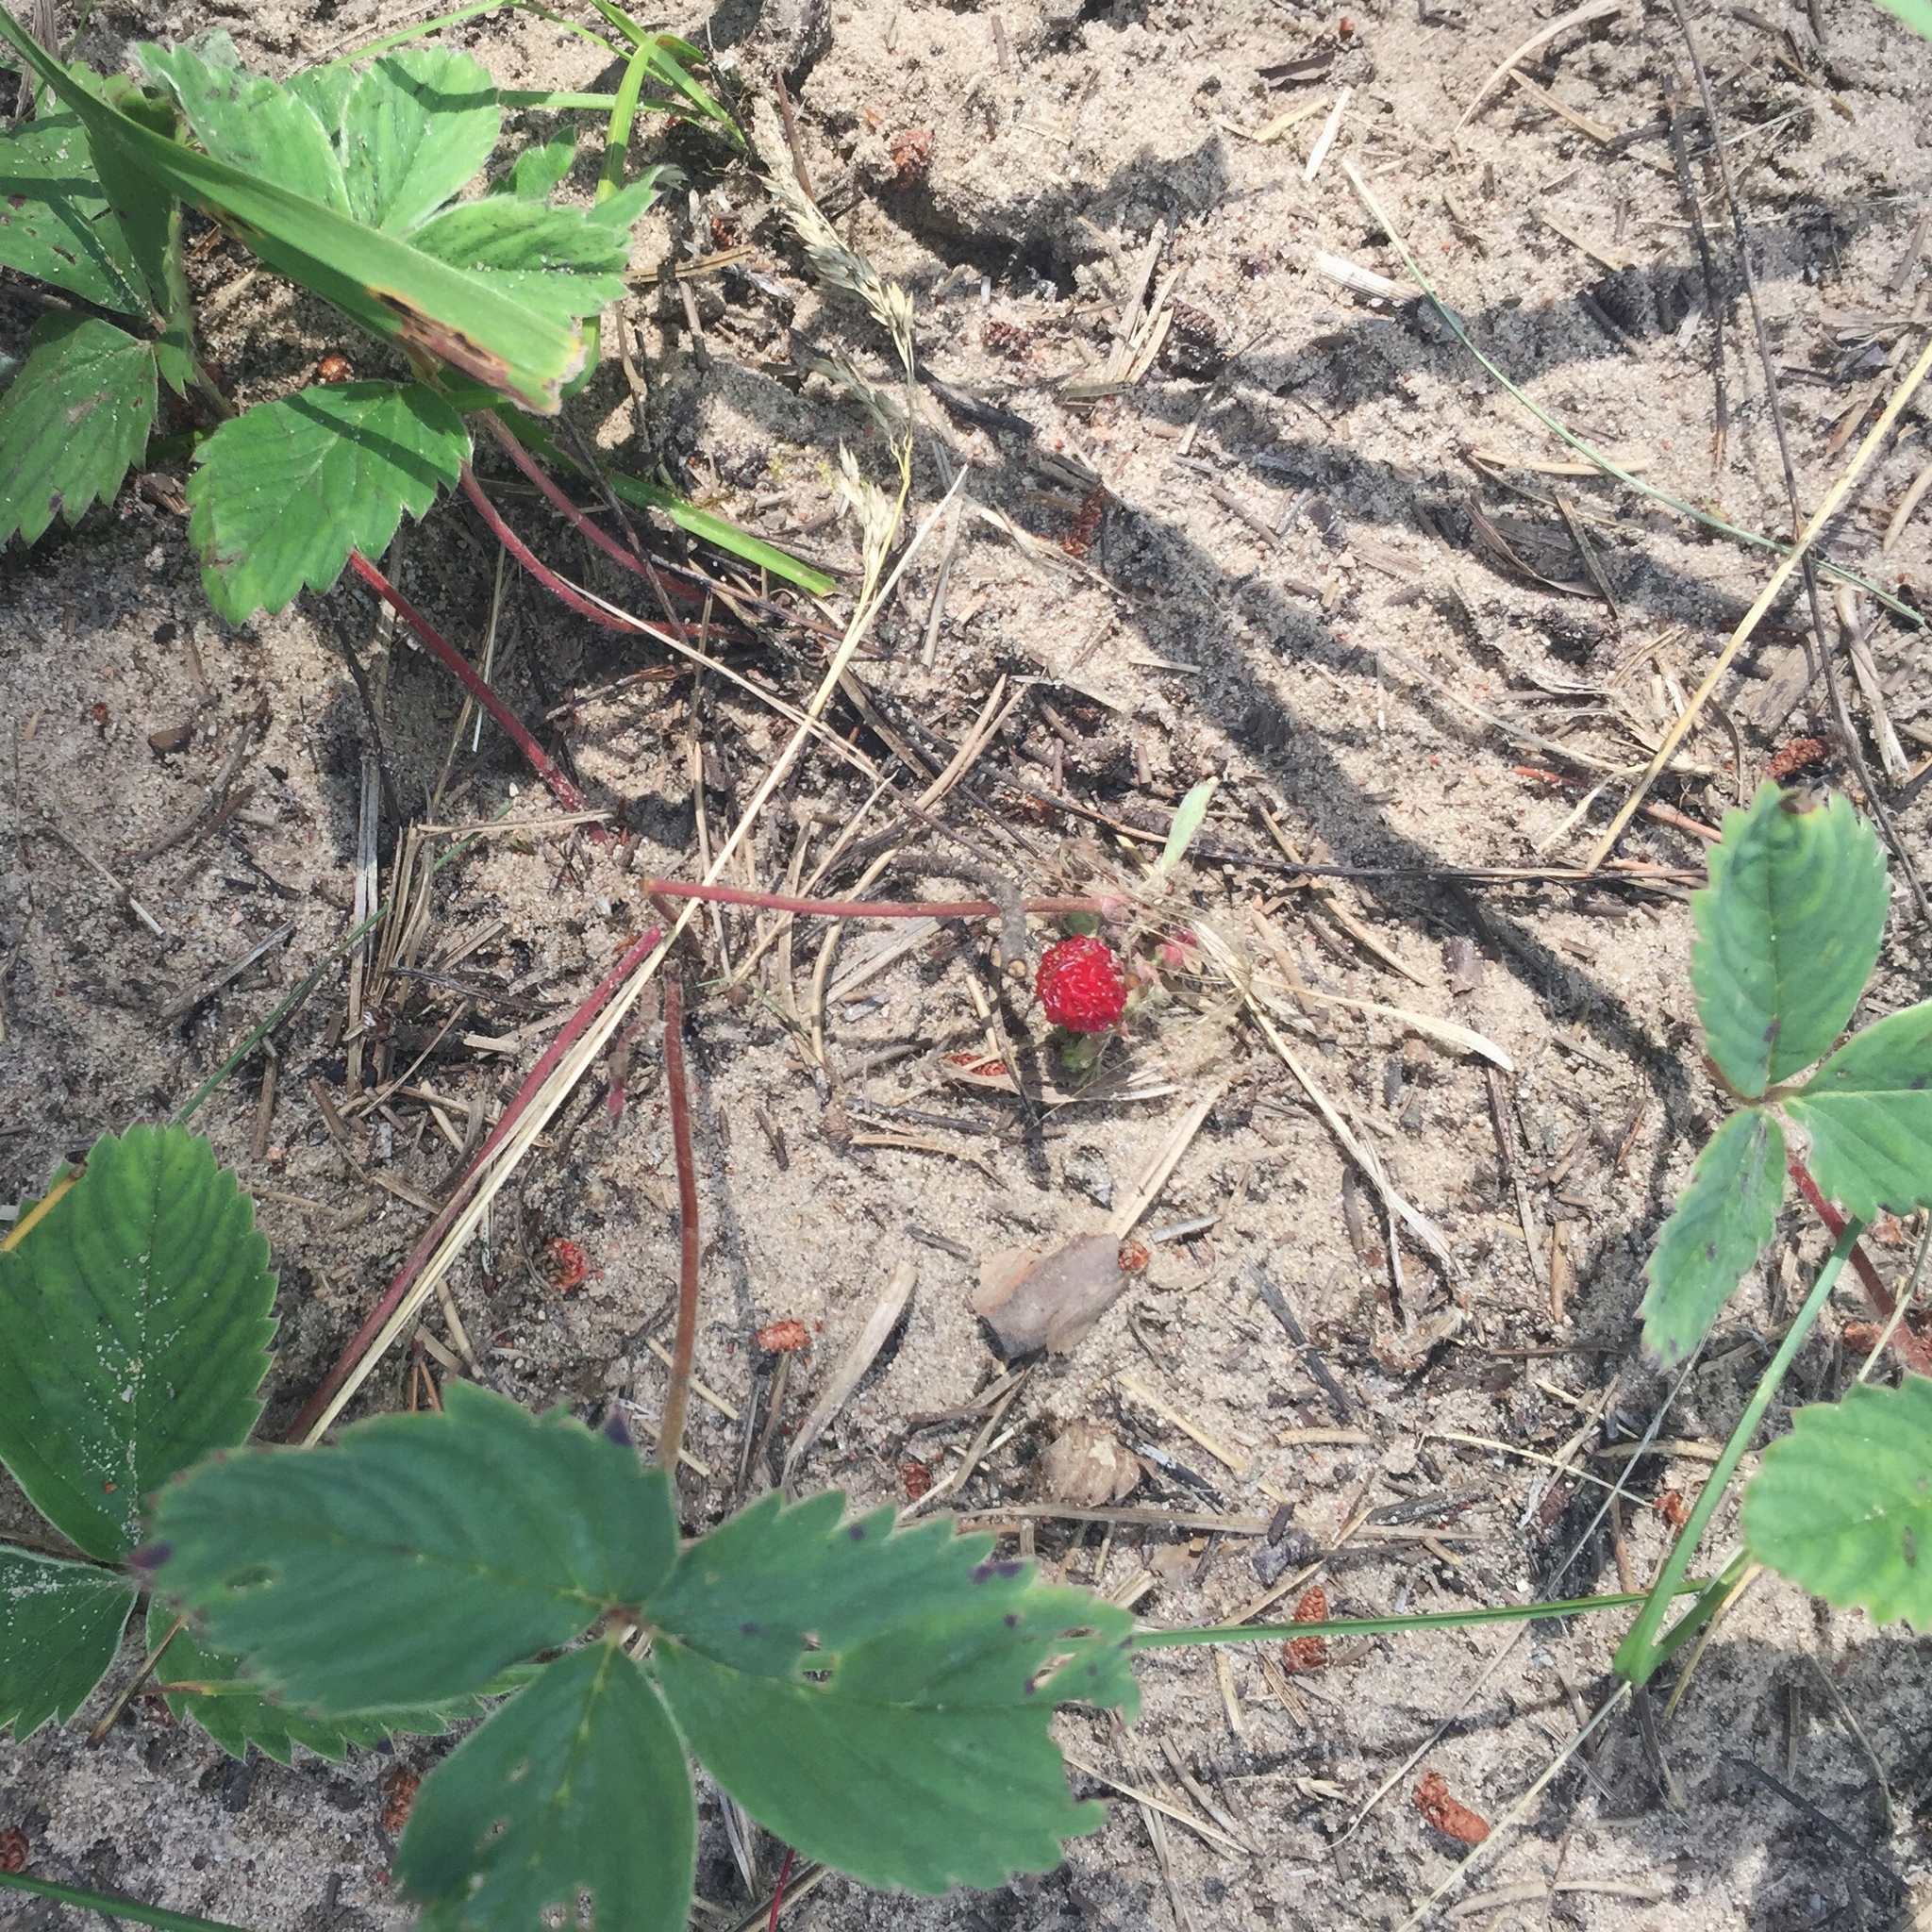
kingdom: Plantae
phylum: Tracheophyta
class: Magnoliopsida
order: Rosales
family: Rosaceae
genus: Fragaria
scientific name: Fragaria virginiana
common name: Thickleaved wild strawberry
